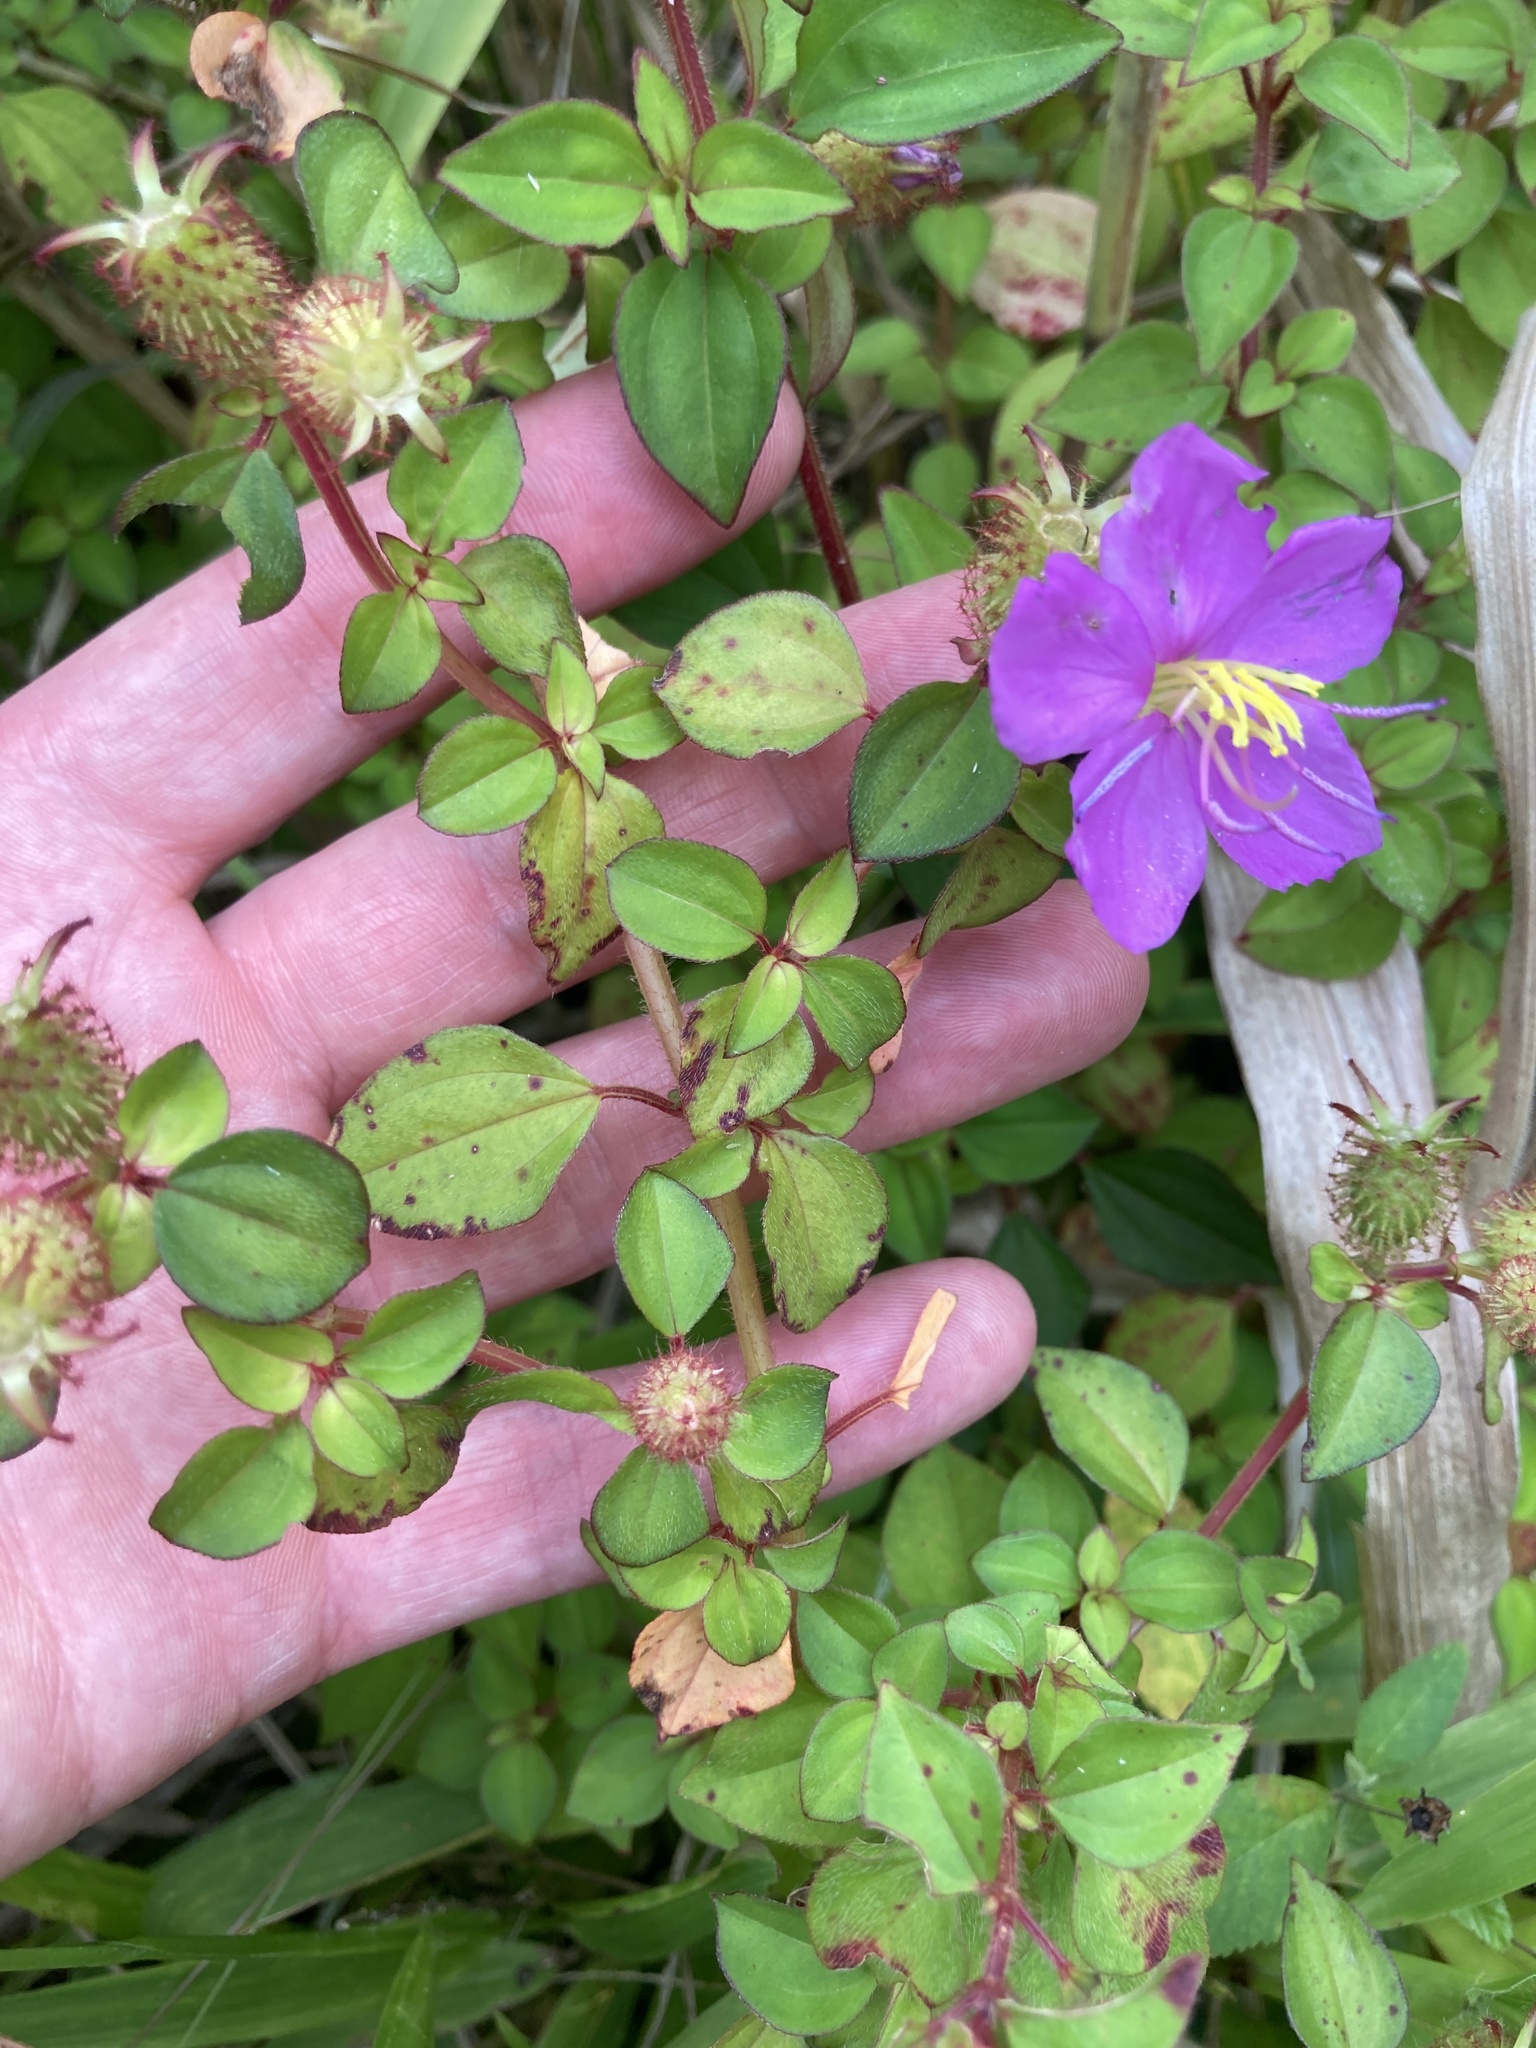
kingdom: Plantae
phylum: Tracheophyta
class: Magnoliopsida
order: Myrtales
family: Melastomataceae
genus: Heterotis
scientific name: Heterotis rotundifolia
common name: Pinklady
